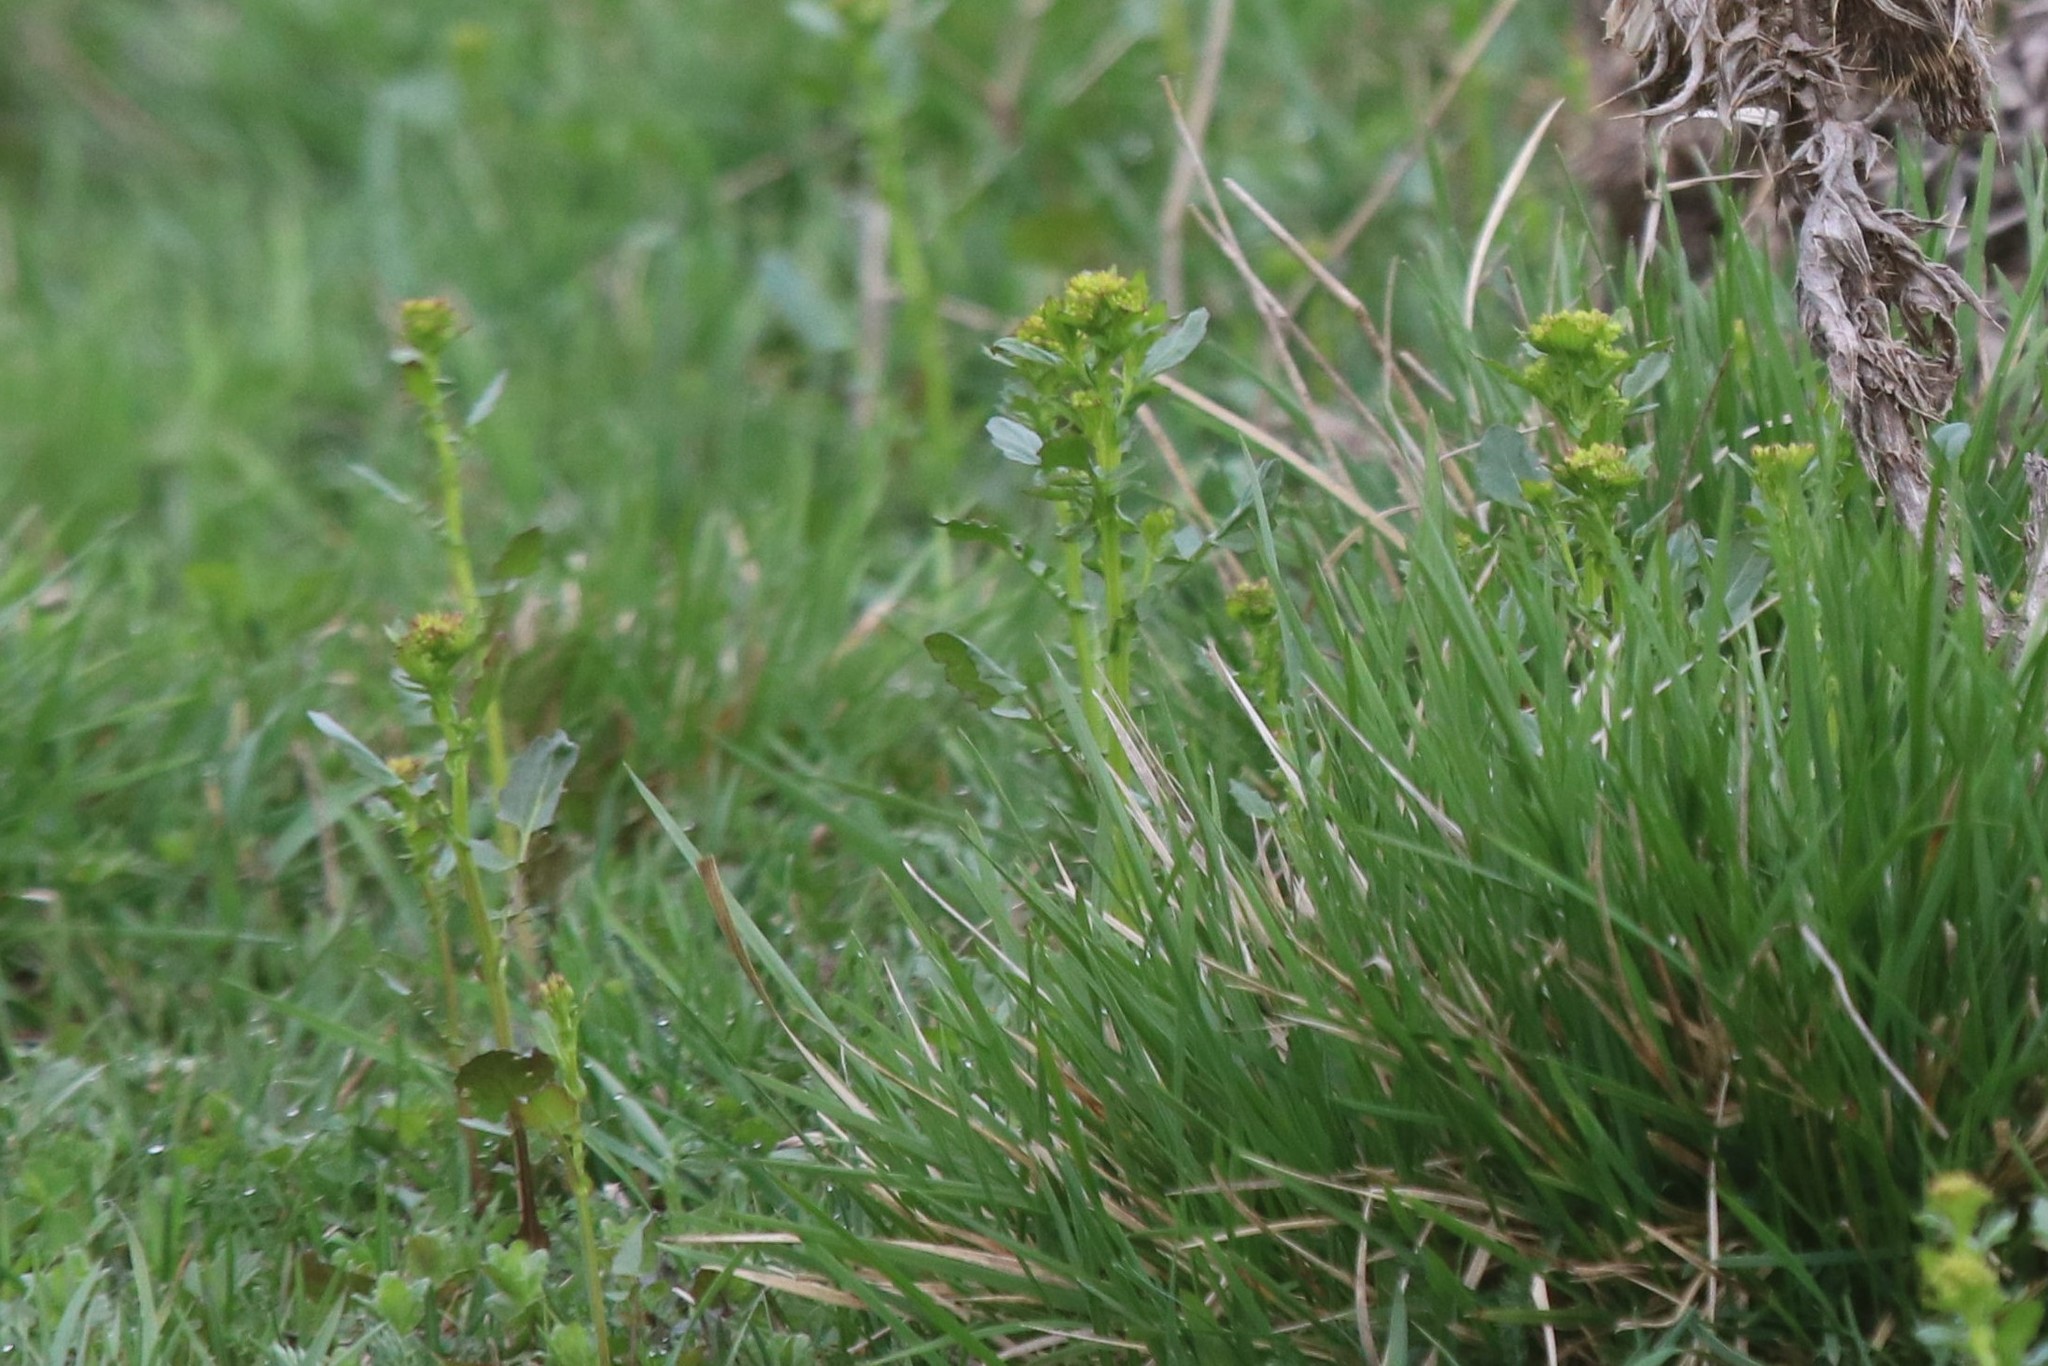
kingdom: Plantae
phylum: Tracheophyta
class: Magnoliopsida
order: Brassicales
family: Brassicaceae
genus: Barbarea
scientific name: Barbarea vulgaris
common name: Cressy-greens
